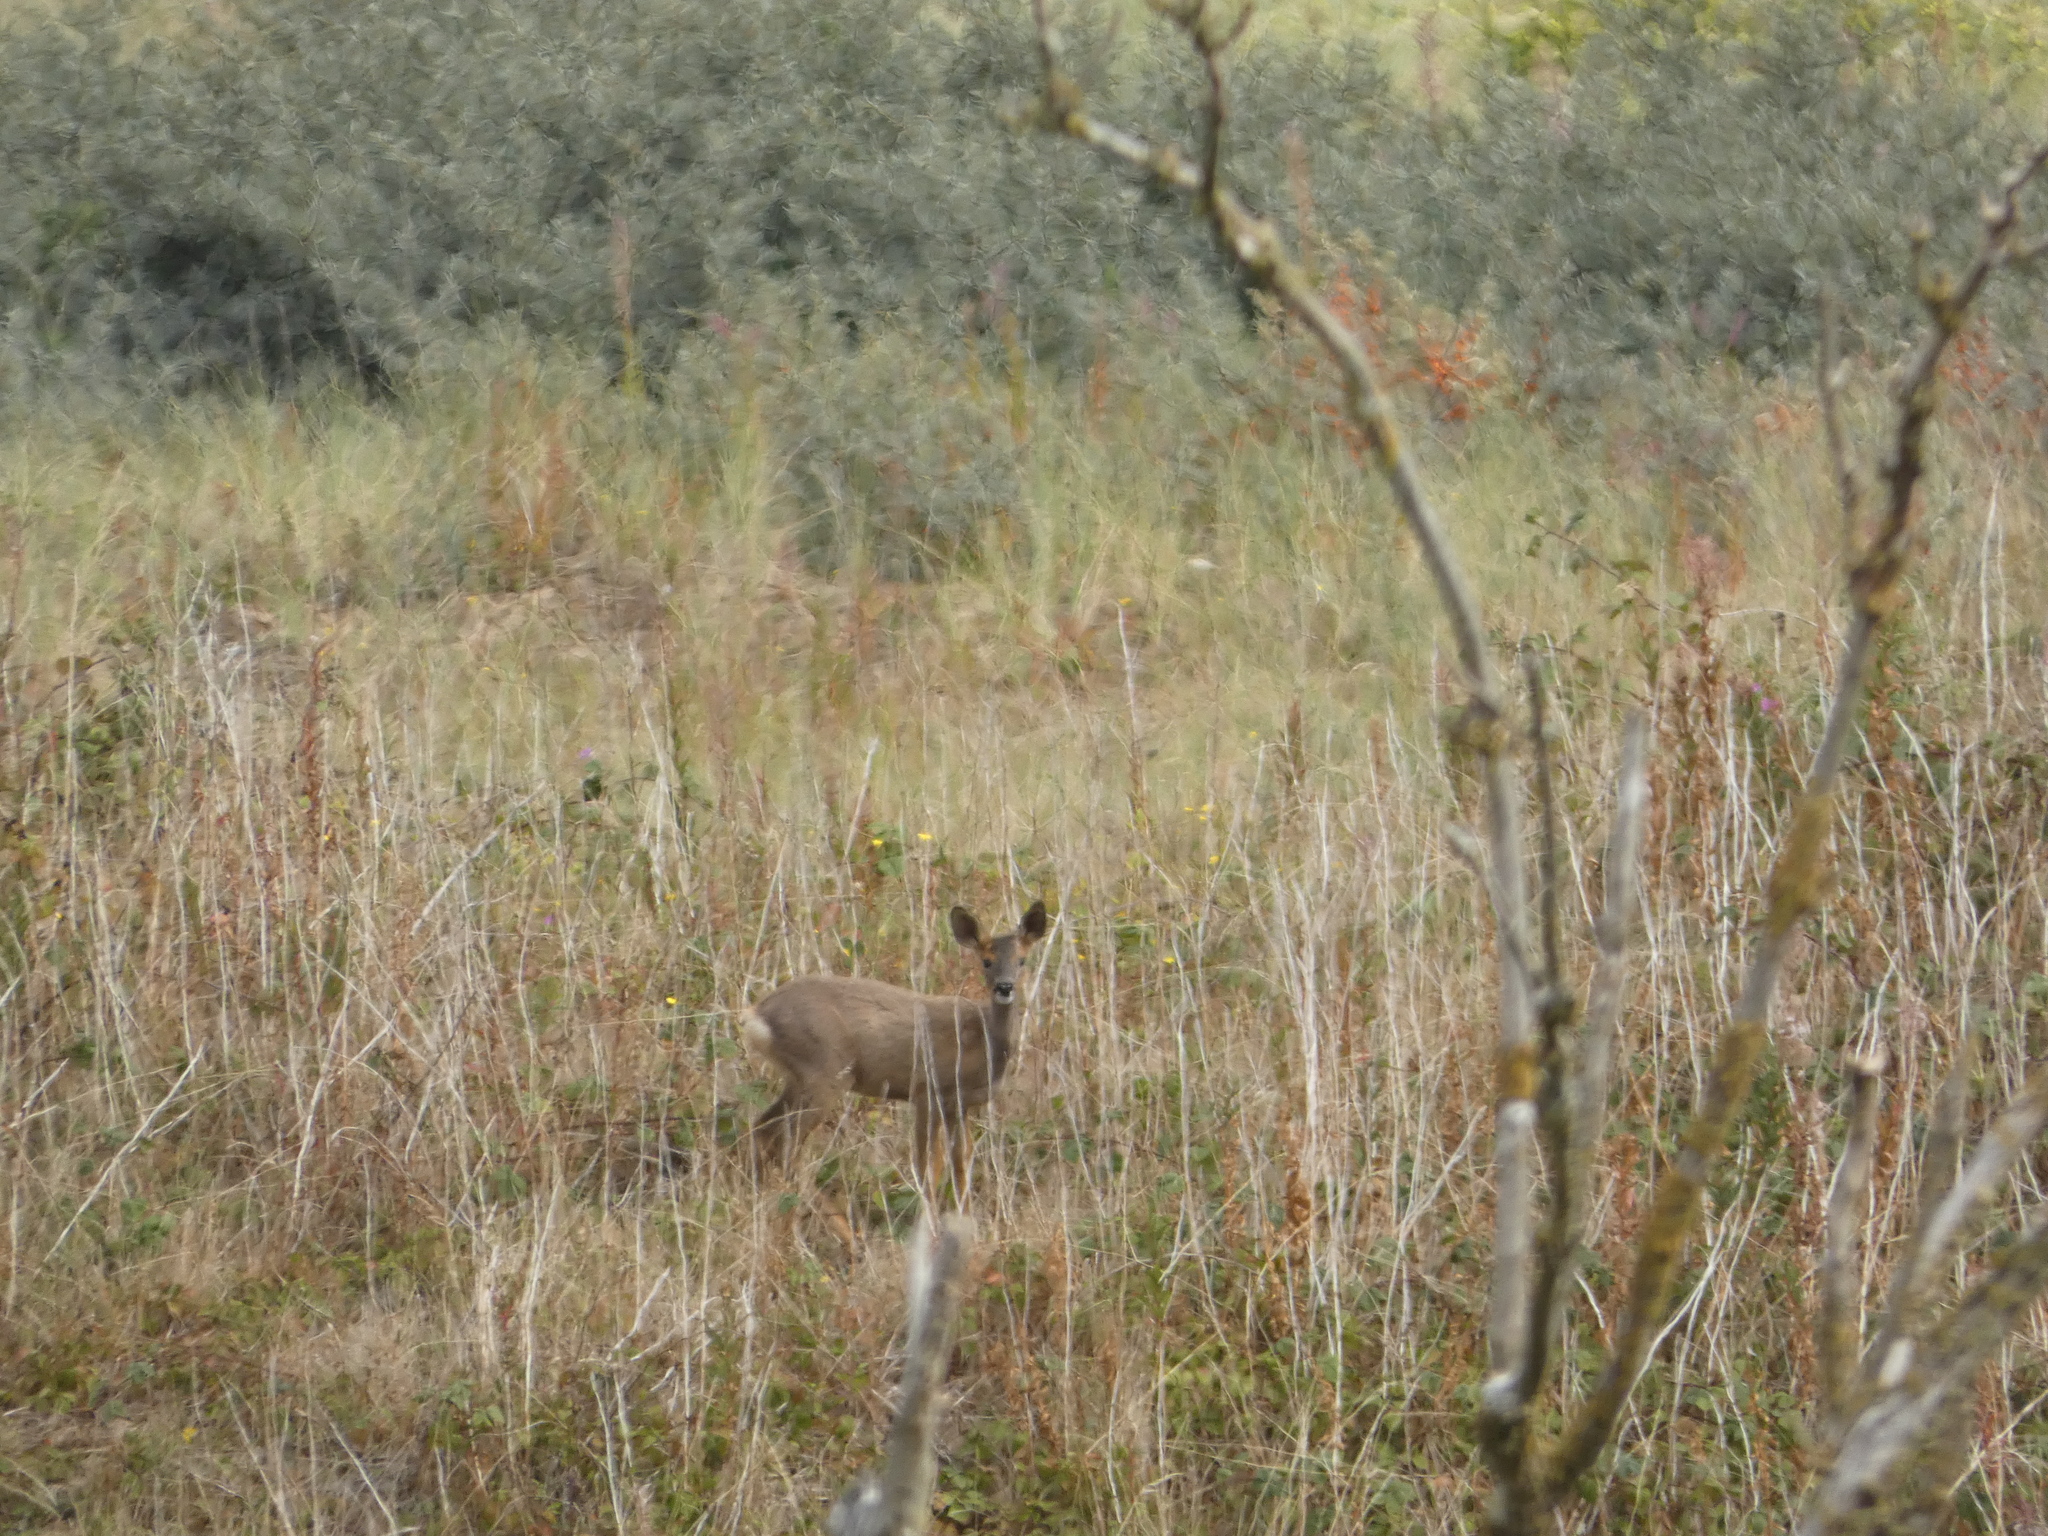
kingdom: Animalia
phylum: Chordata
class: Mammalia
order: Artiodactyla
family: Cervidae
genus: Capreolus
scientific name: Capreolus capreolus
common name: Western roe deer
